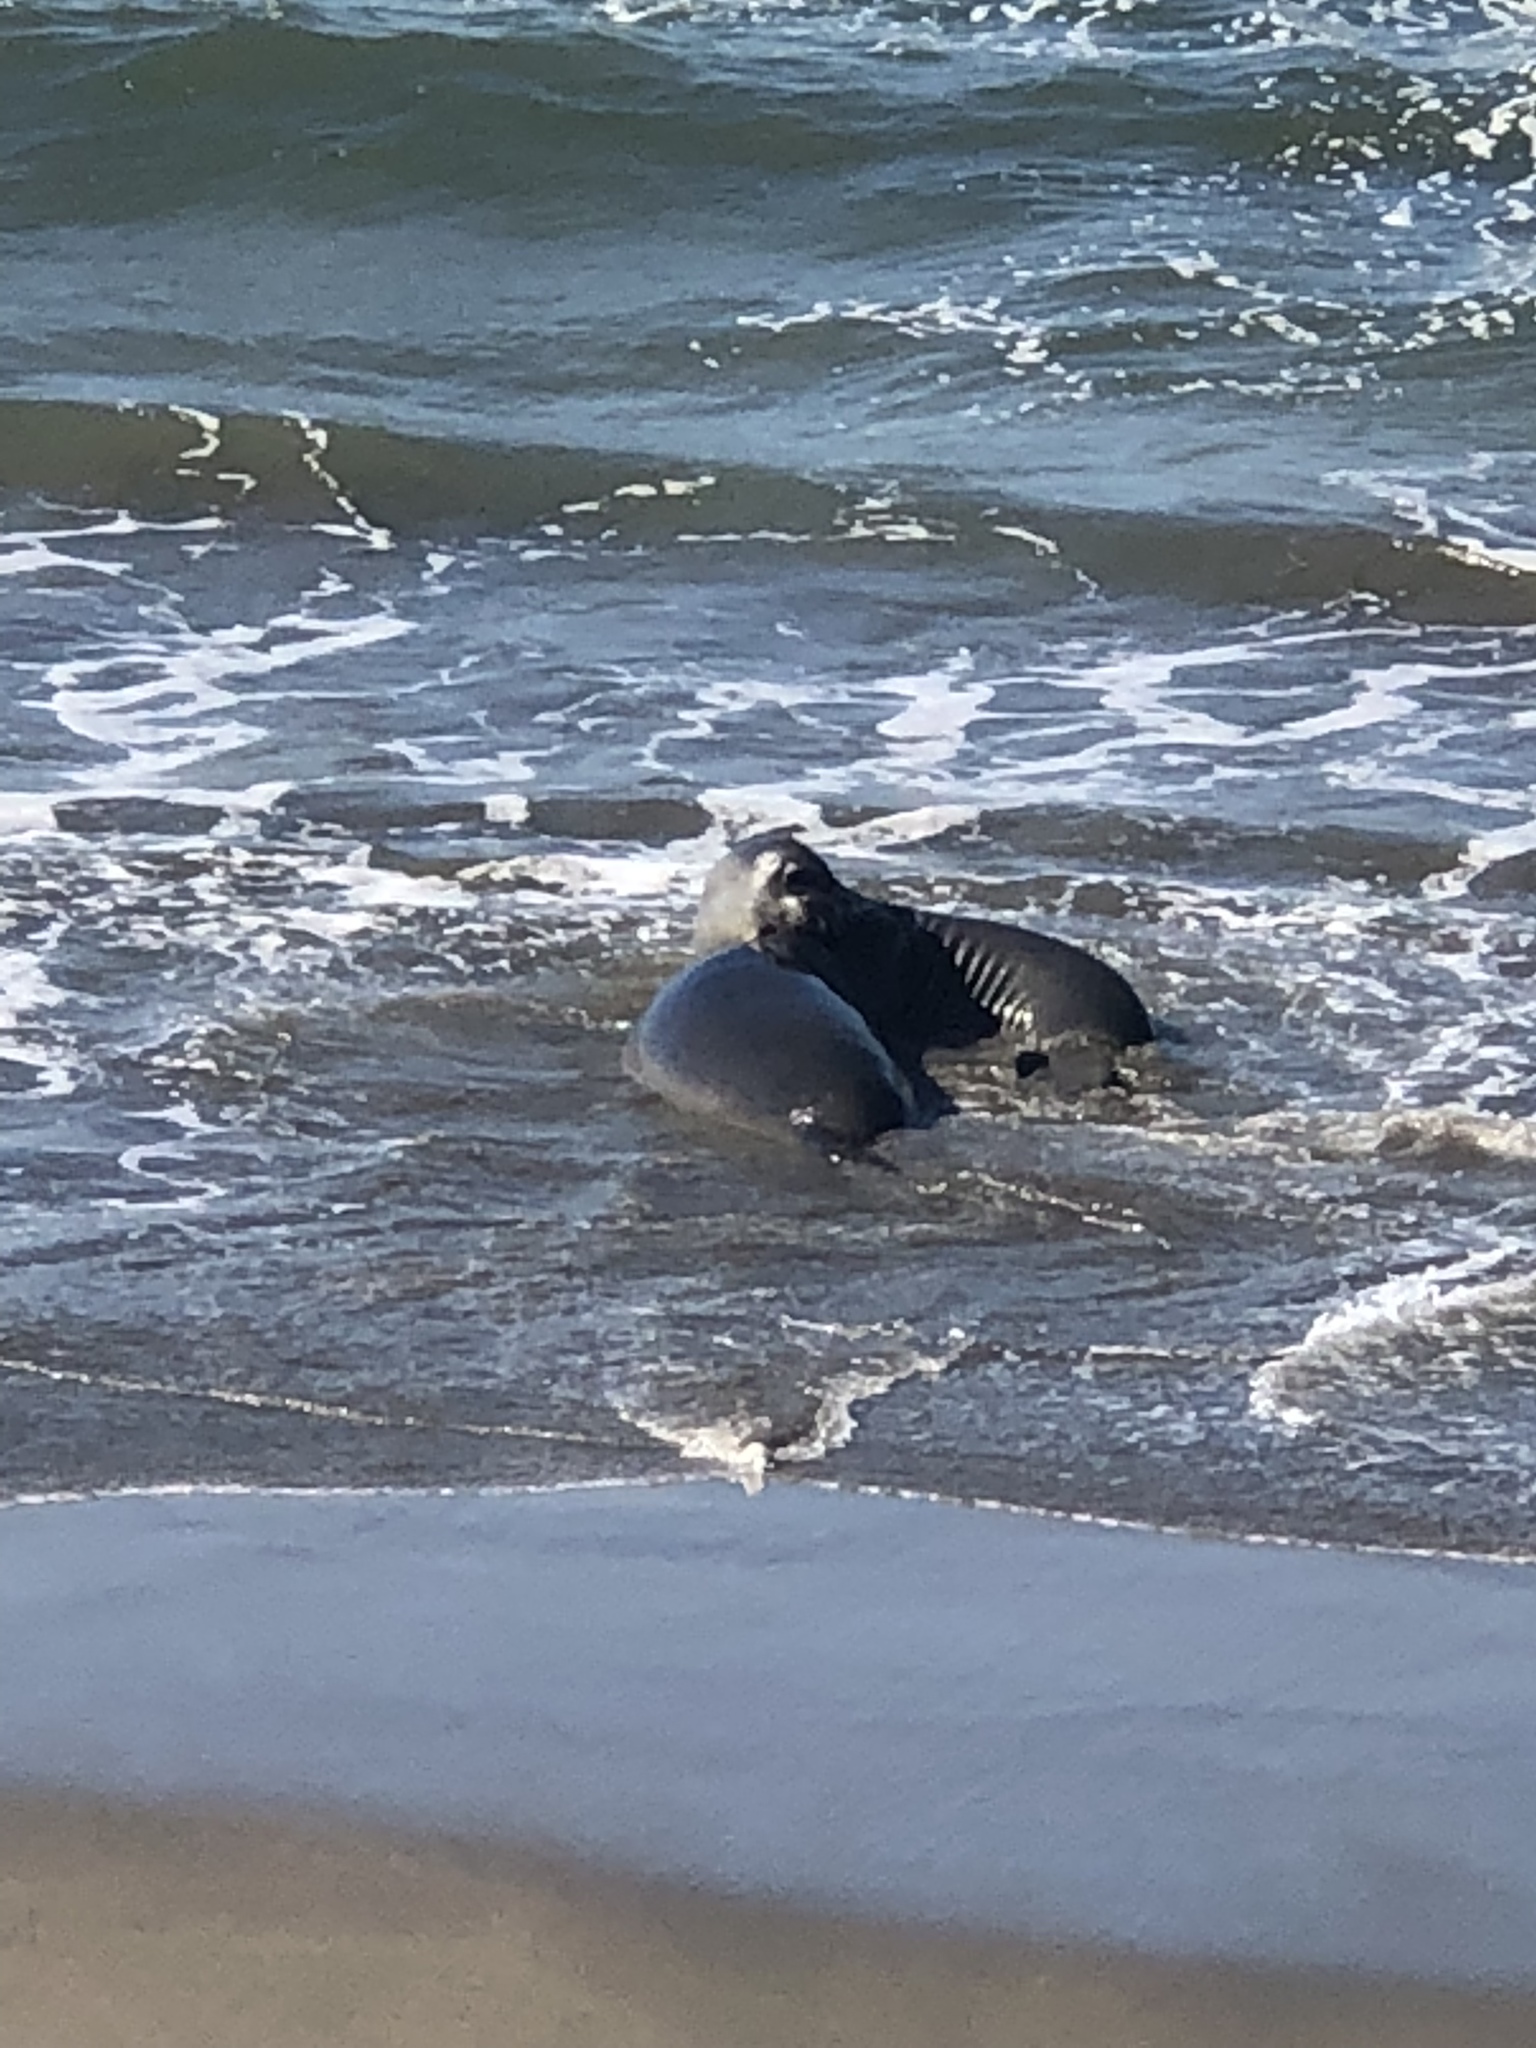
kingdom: Animalia
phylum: Chordata
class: Mammalia
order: Carnivora
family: Phocidae
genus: Mirounga
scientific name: Mirounga angustirostris
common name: Northern elephant seal
